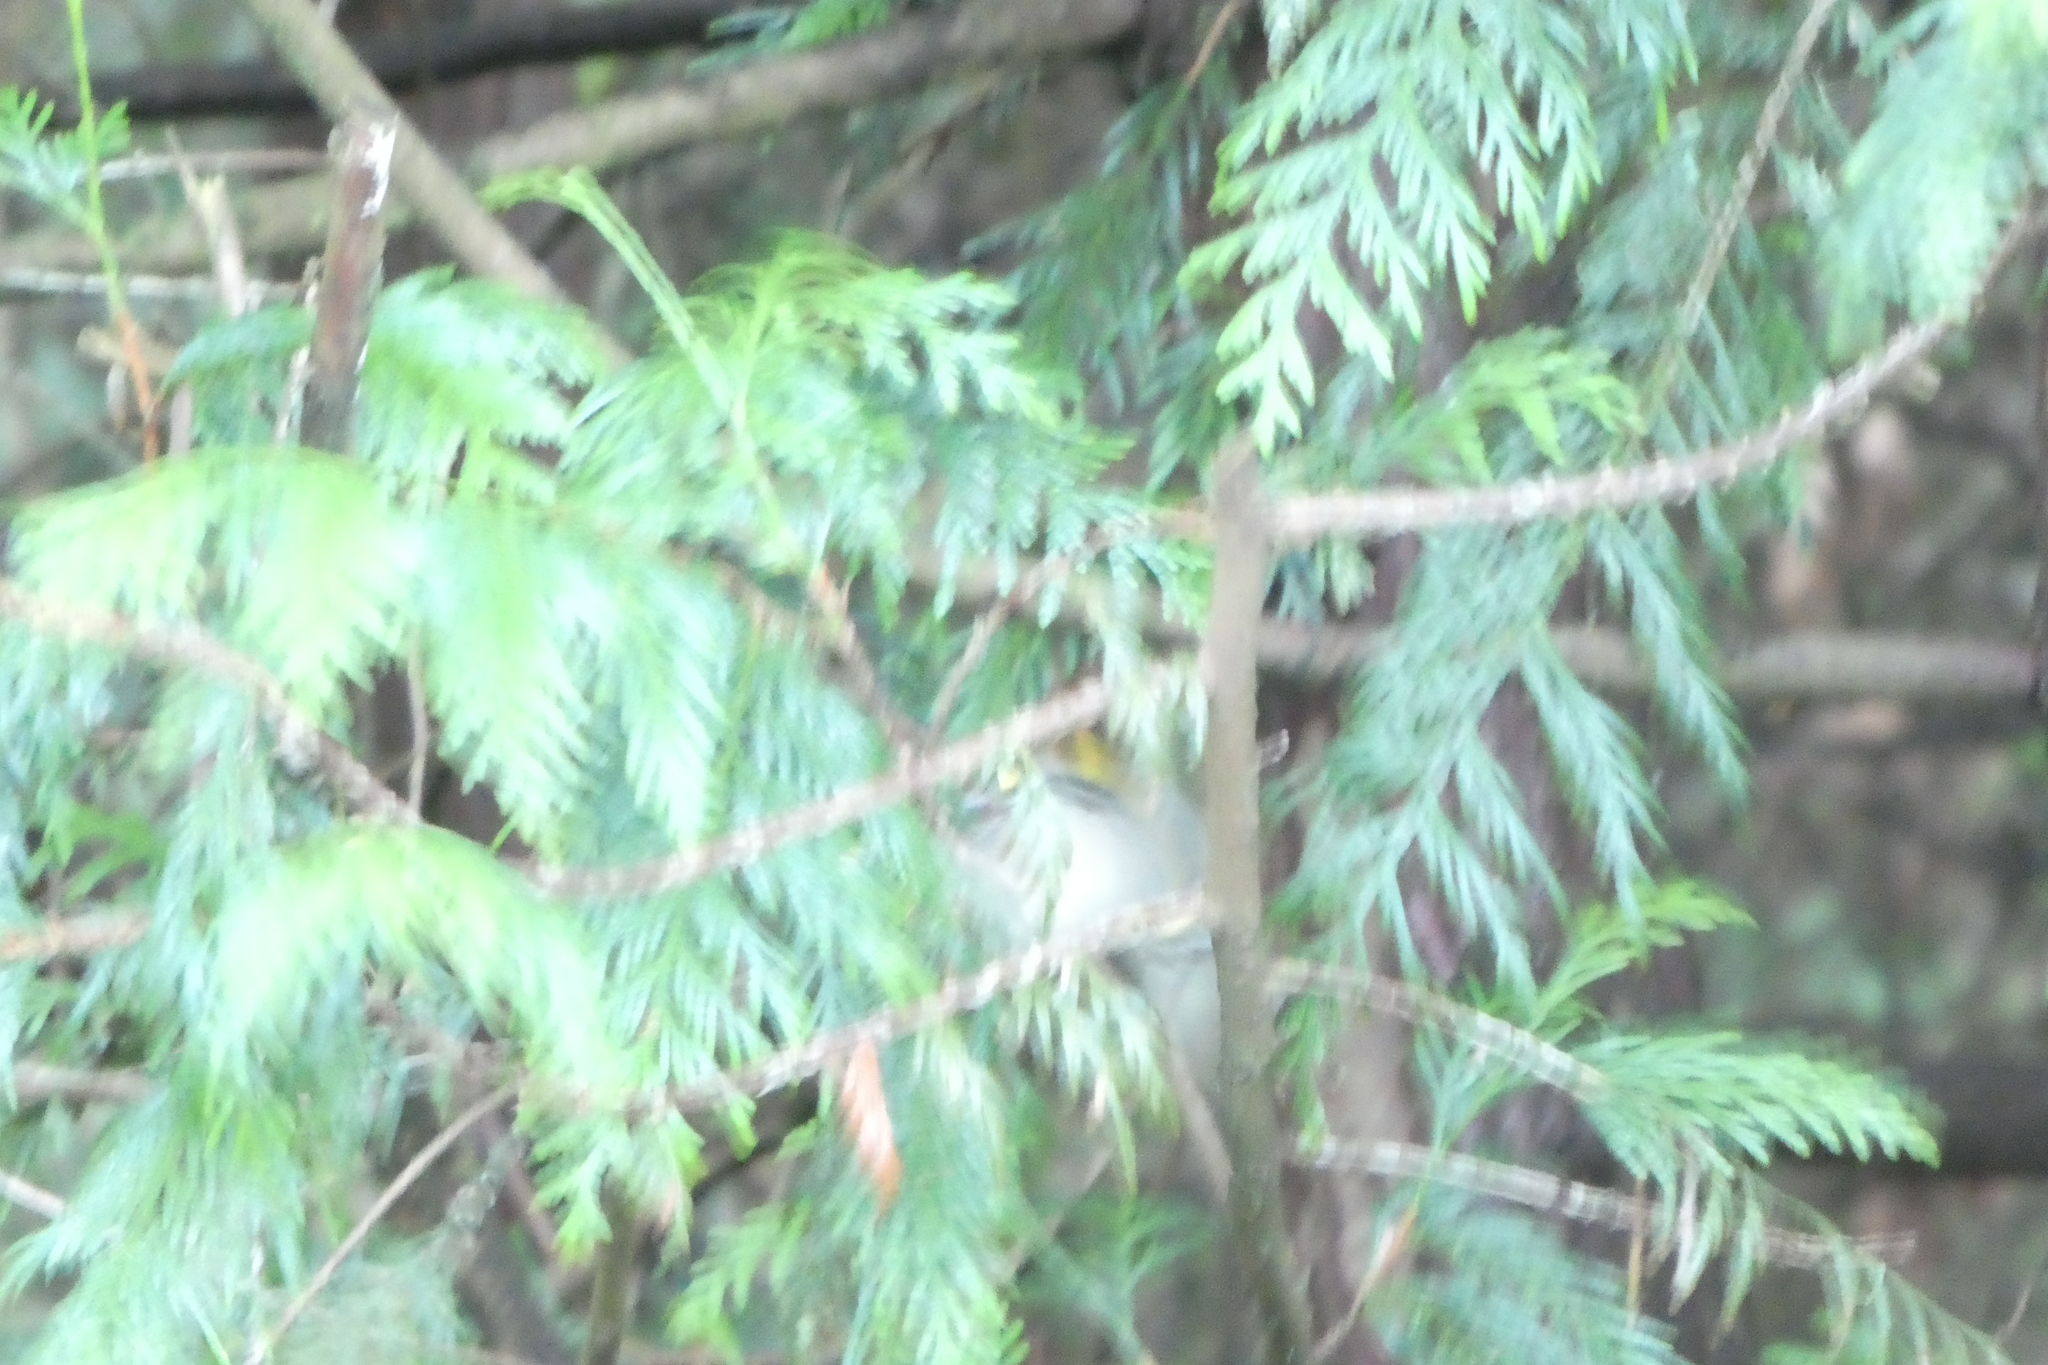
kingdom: Animalia
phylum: Chordata
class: Aves
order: Passeriformes
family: Regulidae
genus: Regulus
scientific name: Regulus satrapa
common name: Golden-crowned kinglet
